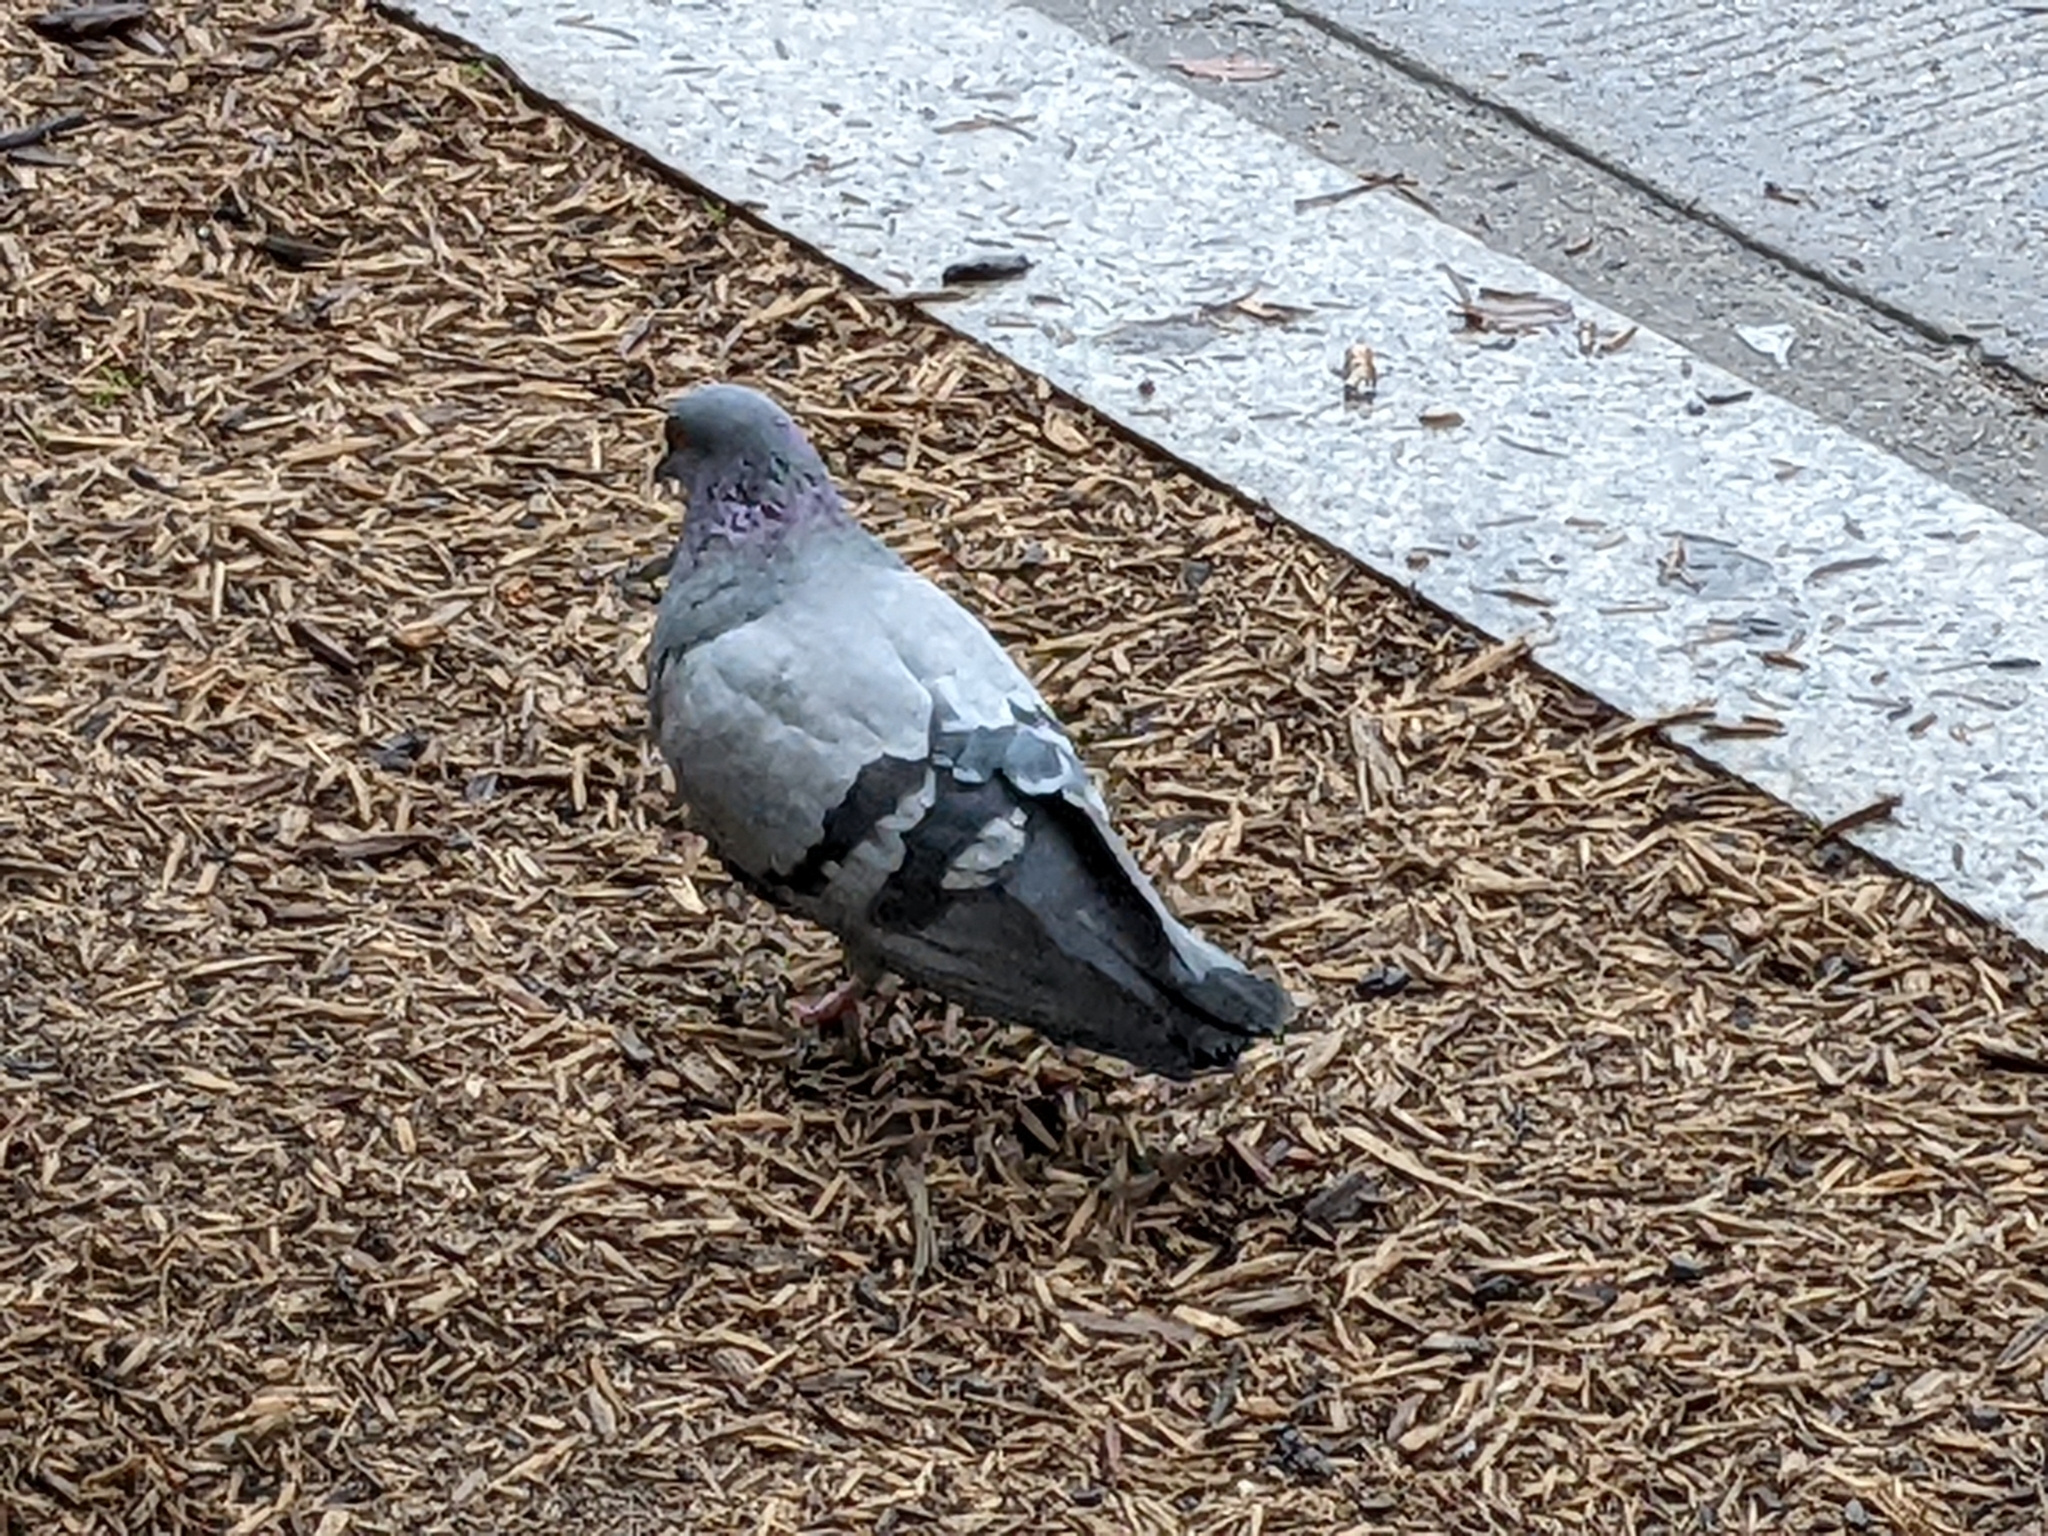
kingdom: Animalia
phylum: Chordata
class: Aves
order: Columbiformes
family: Columbidae
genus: Columba
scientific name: Columba livia
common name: Rock pigeon
